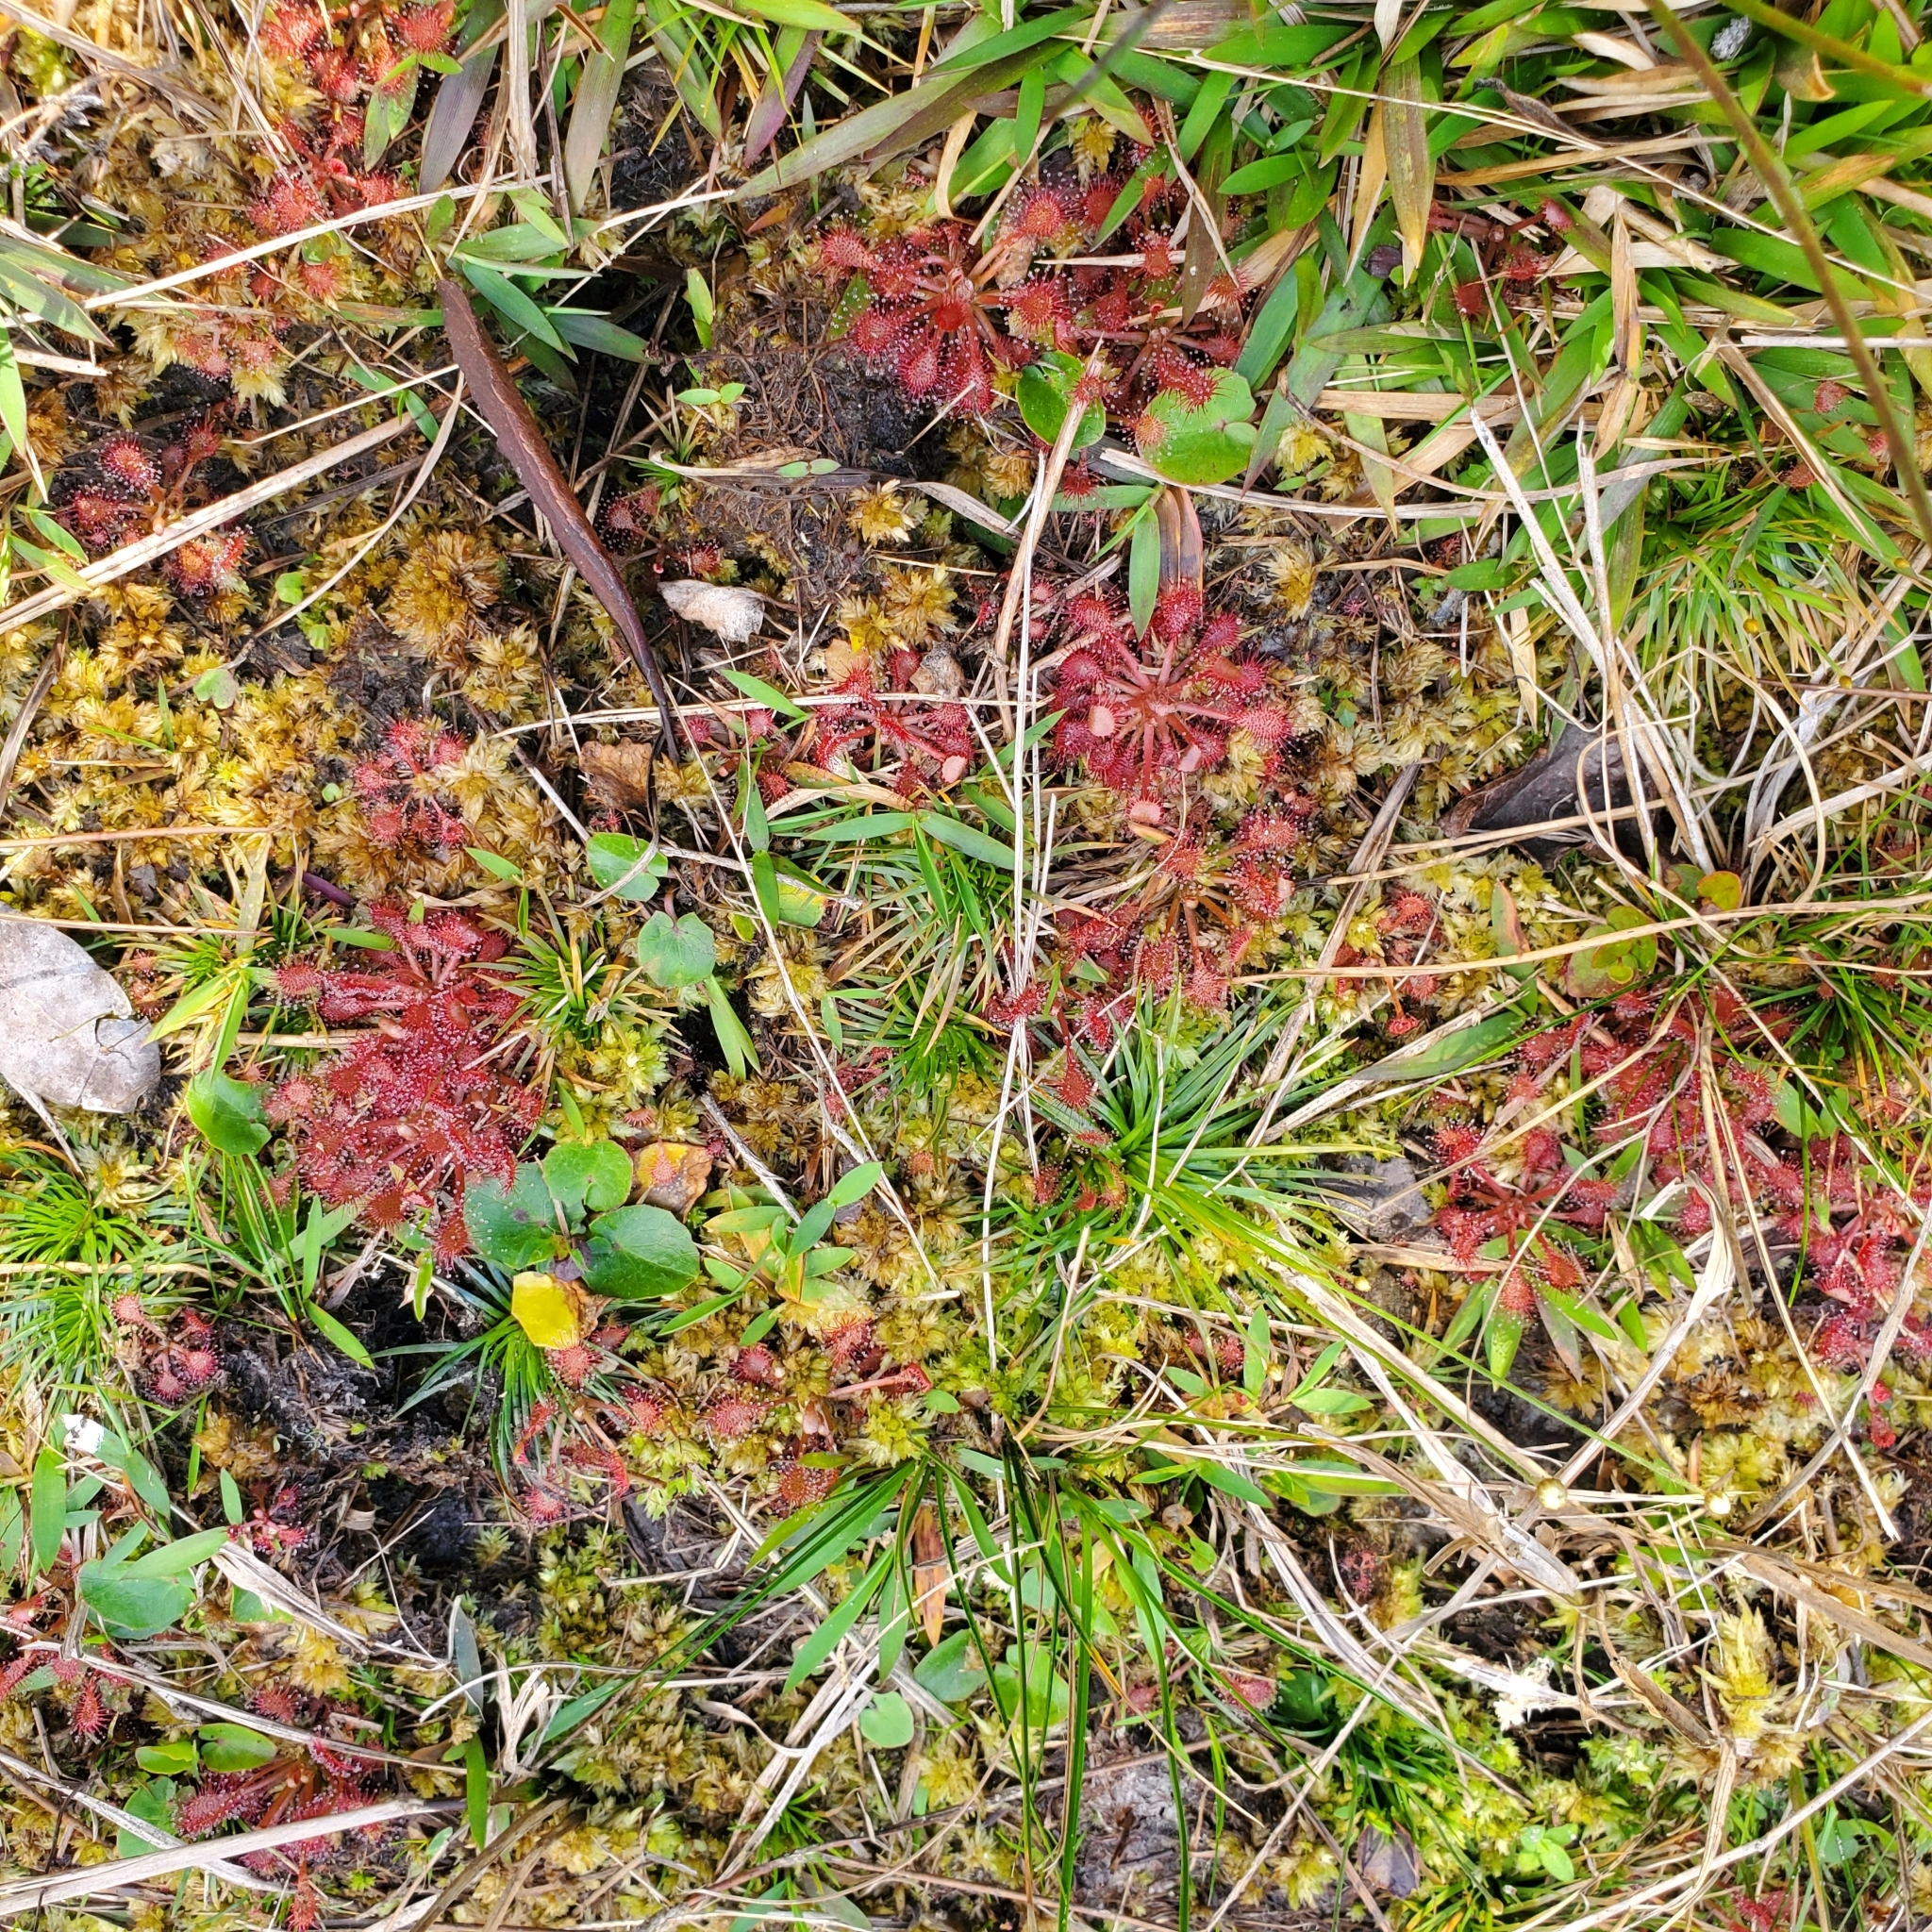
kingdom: Plantae
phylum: Tracheophyta
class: Magnoliopsida
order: Caryophyllales
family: Droseraceae
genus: Drosera
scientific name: Drosera capillaris
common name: Pink sundew
